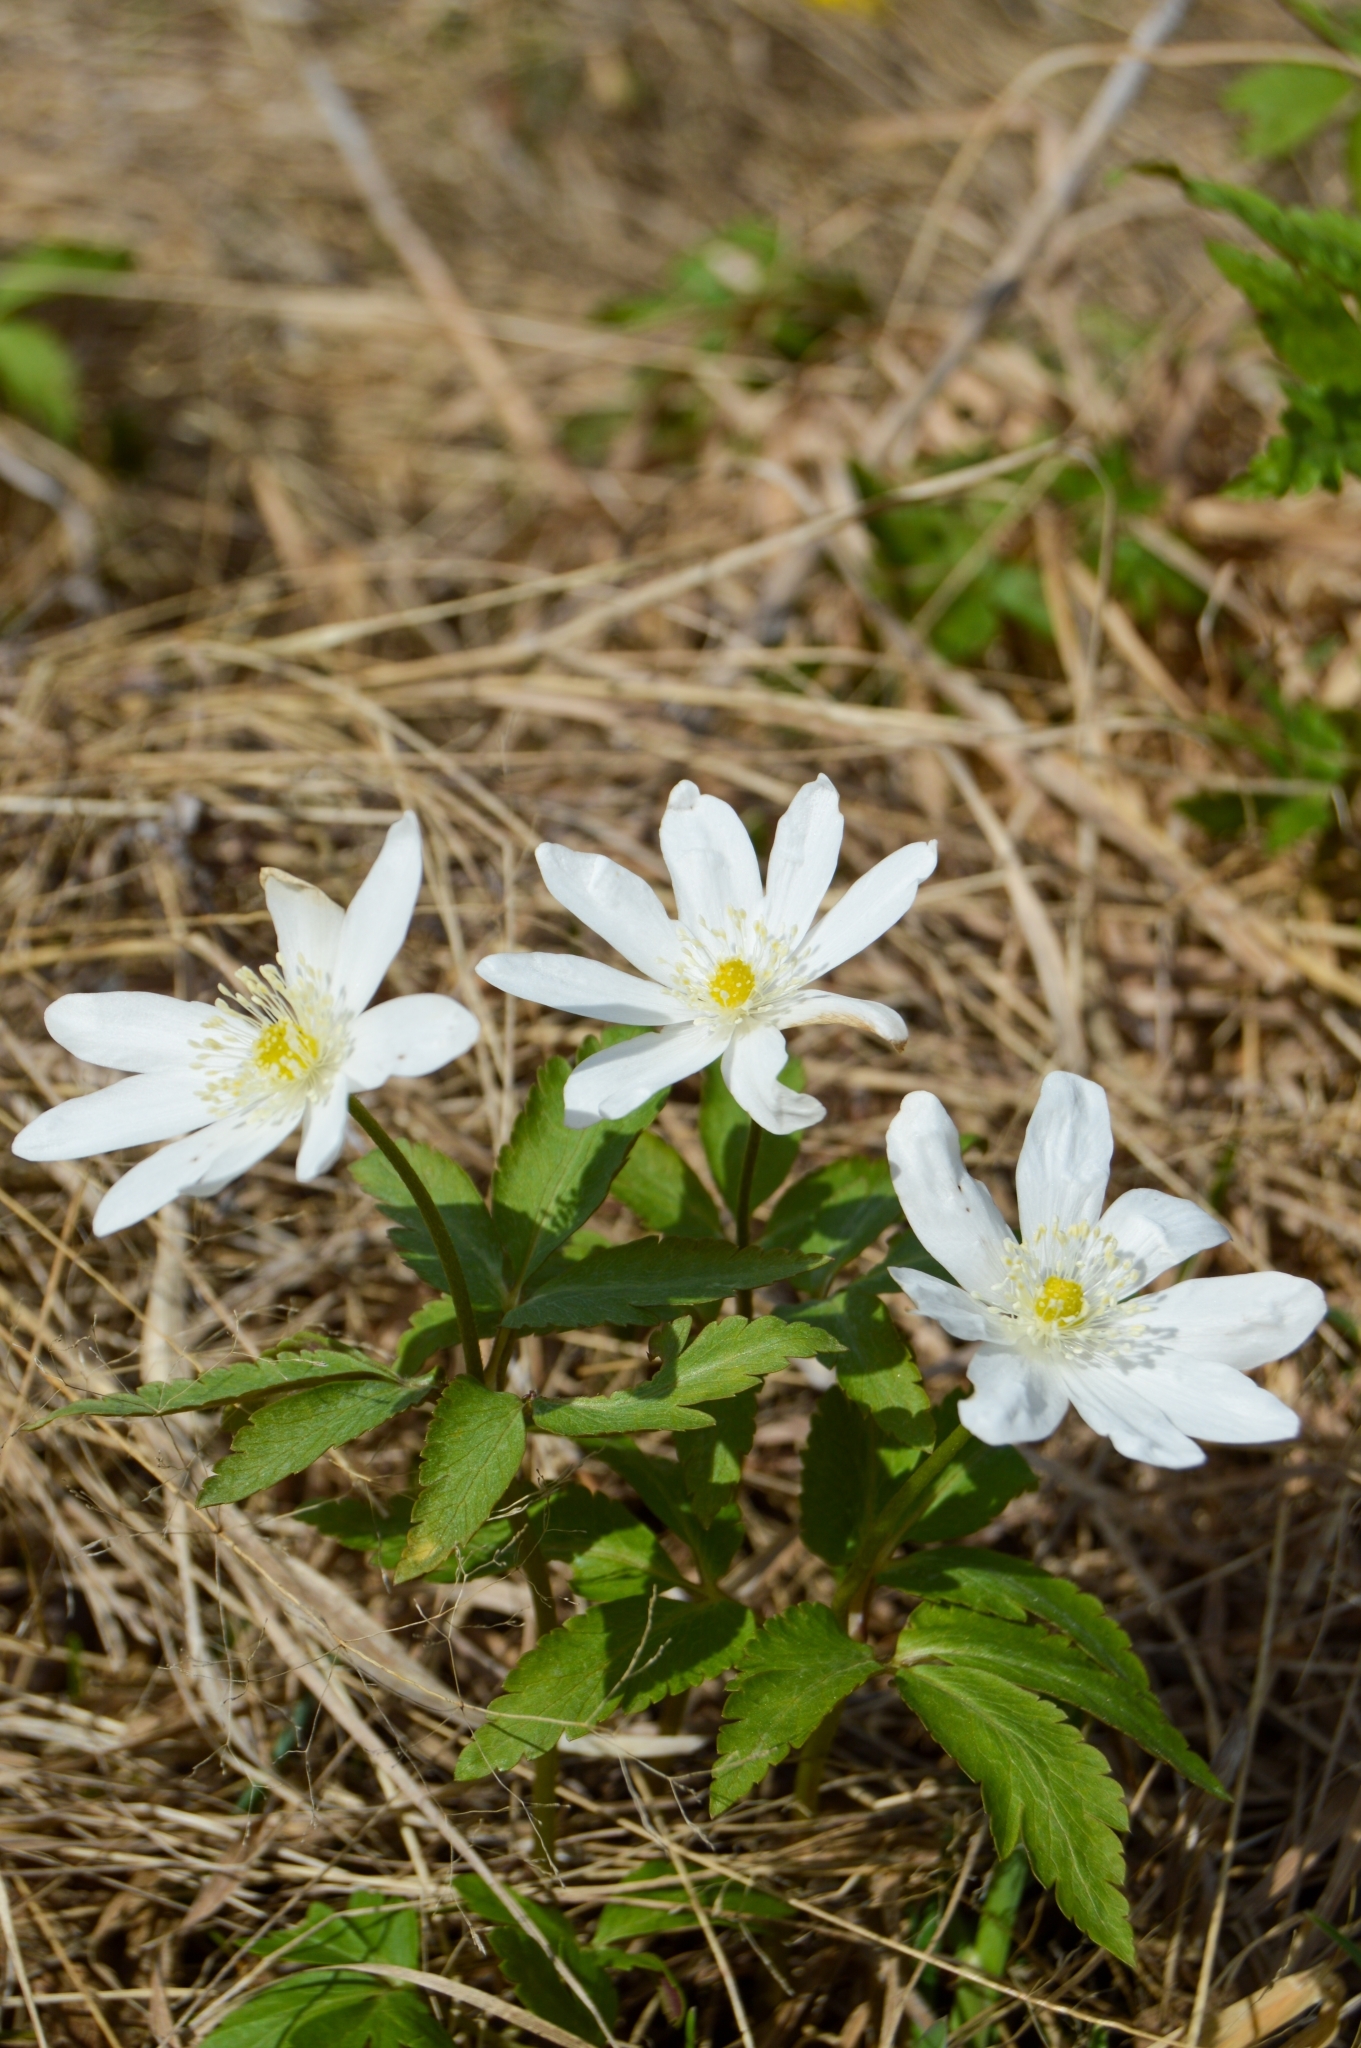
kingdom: Plantae
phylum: Tracheophyta
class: Magnoliopsida
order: Ranunculales
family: Ranunculaceae
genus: Anemone
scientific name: Anemone altaica
